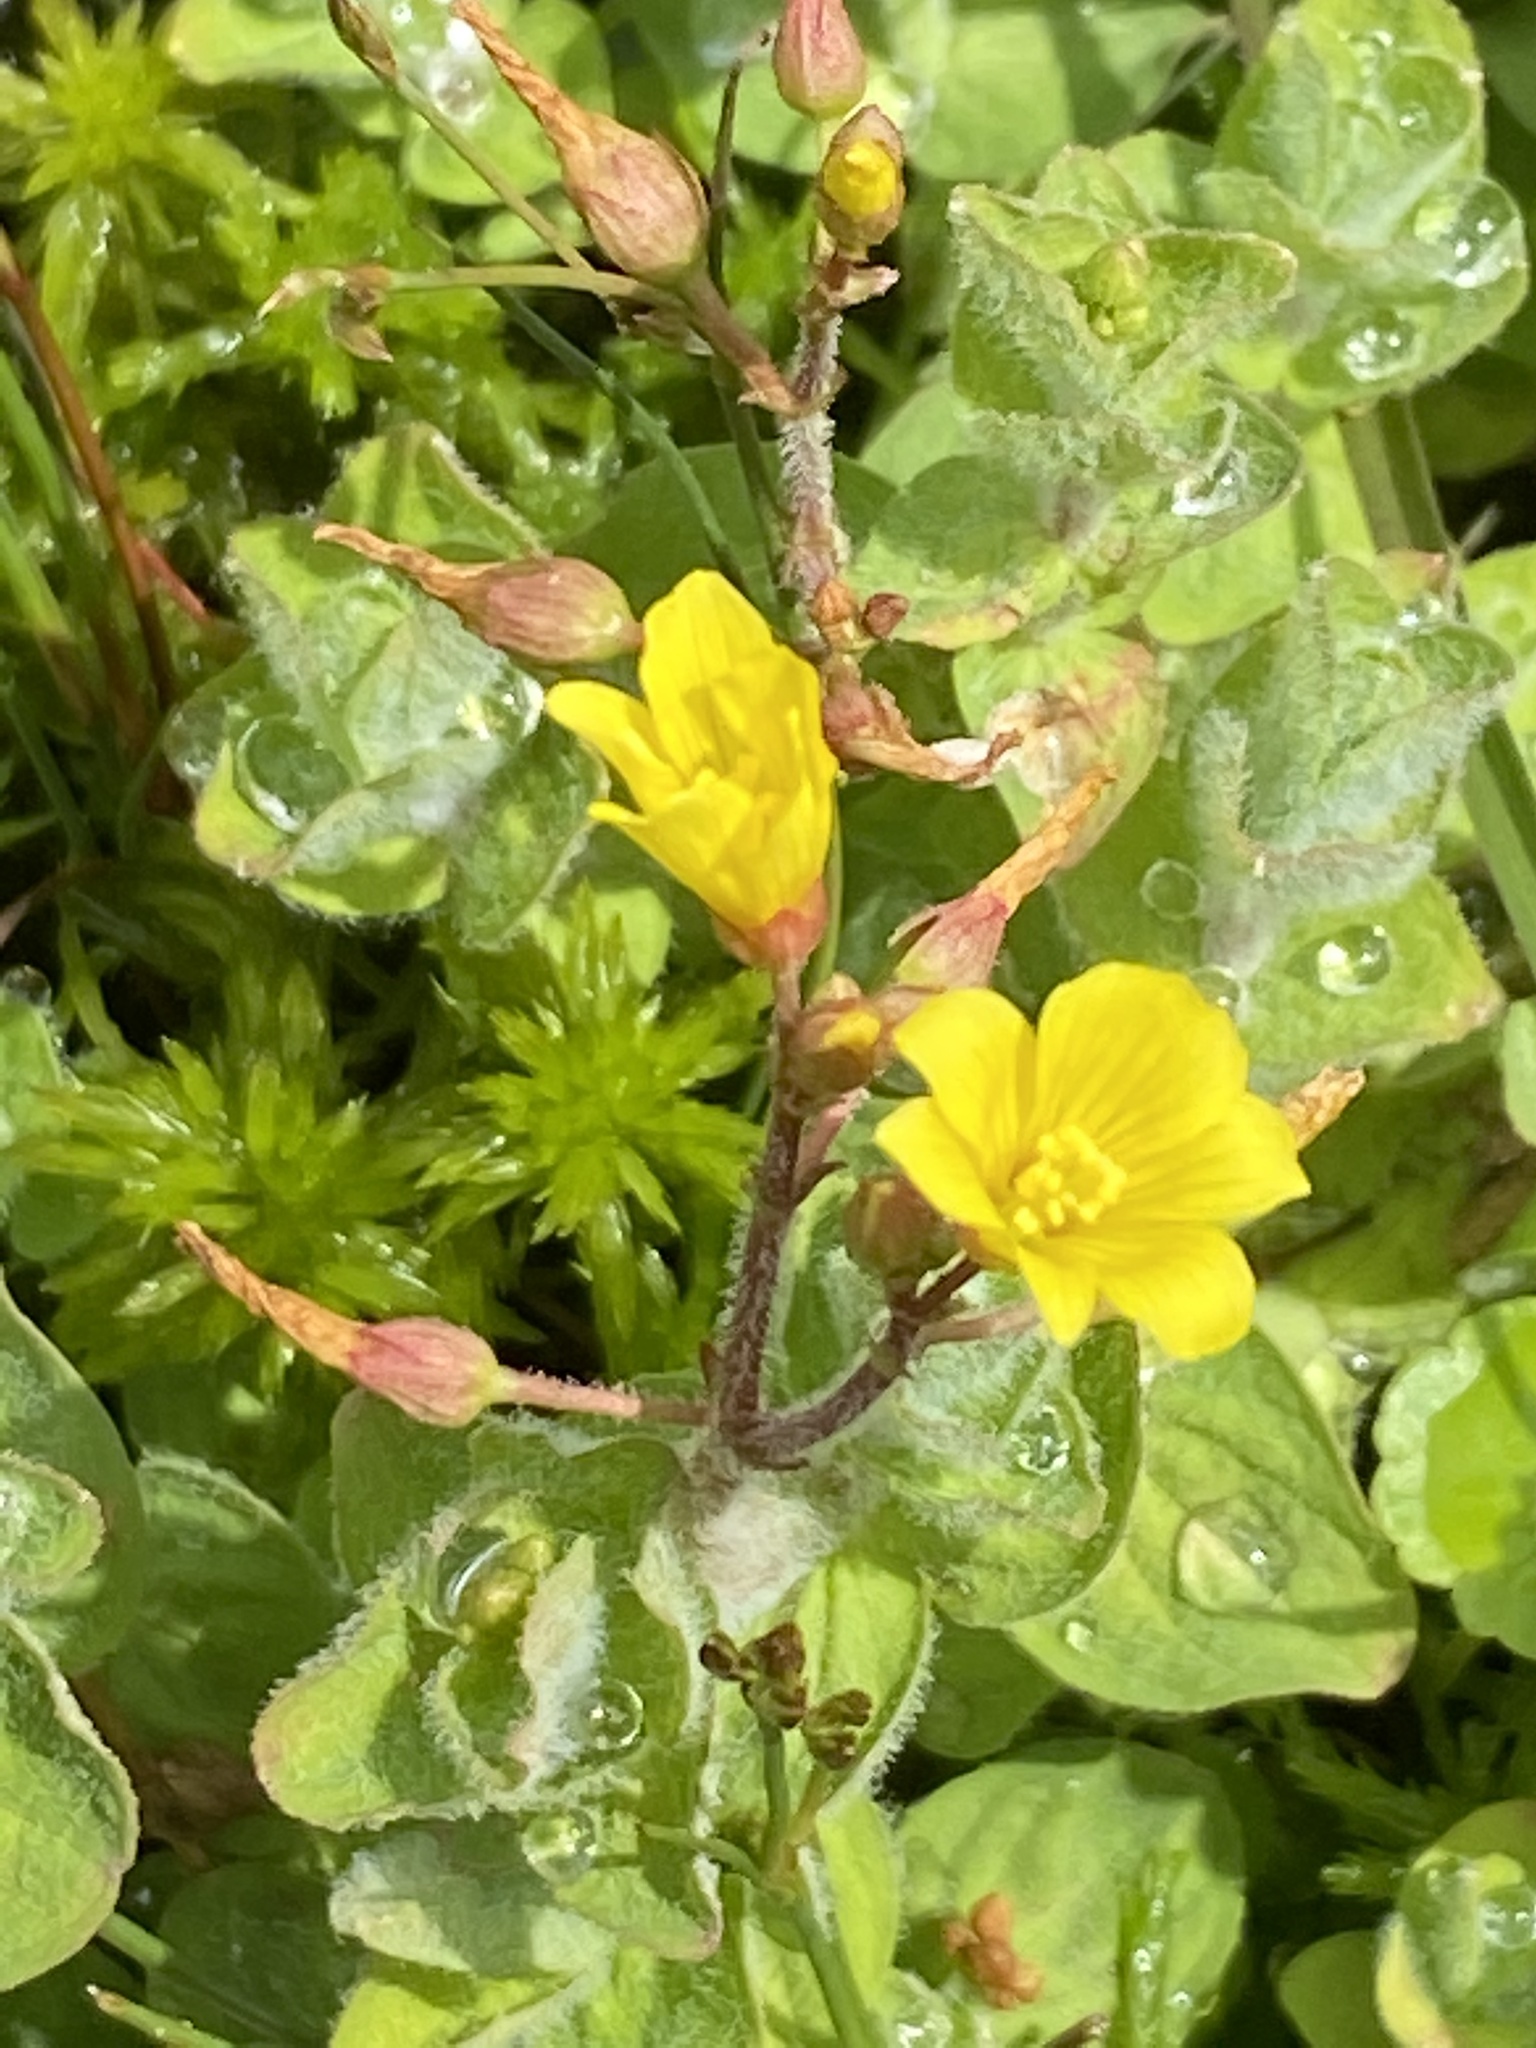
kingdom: Plantae
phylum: Tracheophyta
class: Magnoliopsida
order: Malpighiales
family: Hypericaceae
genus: Hypericum
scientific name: Hypericum elodes
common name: Marsh st. john's-wort
